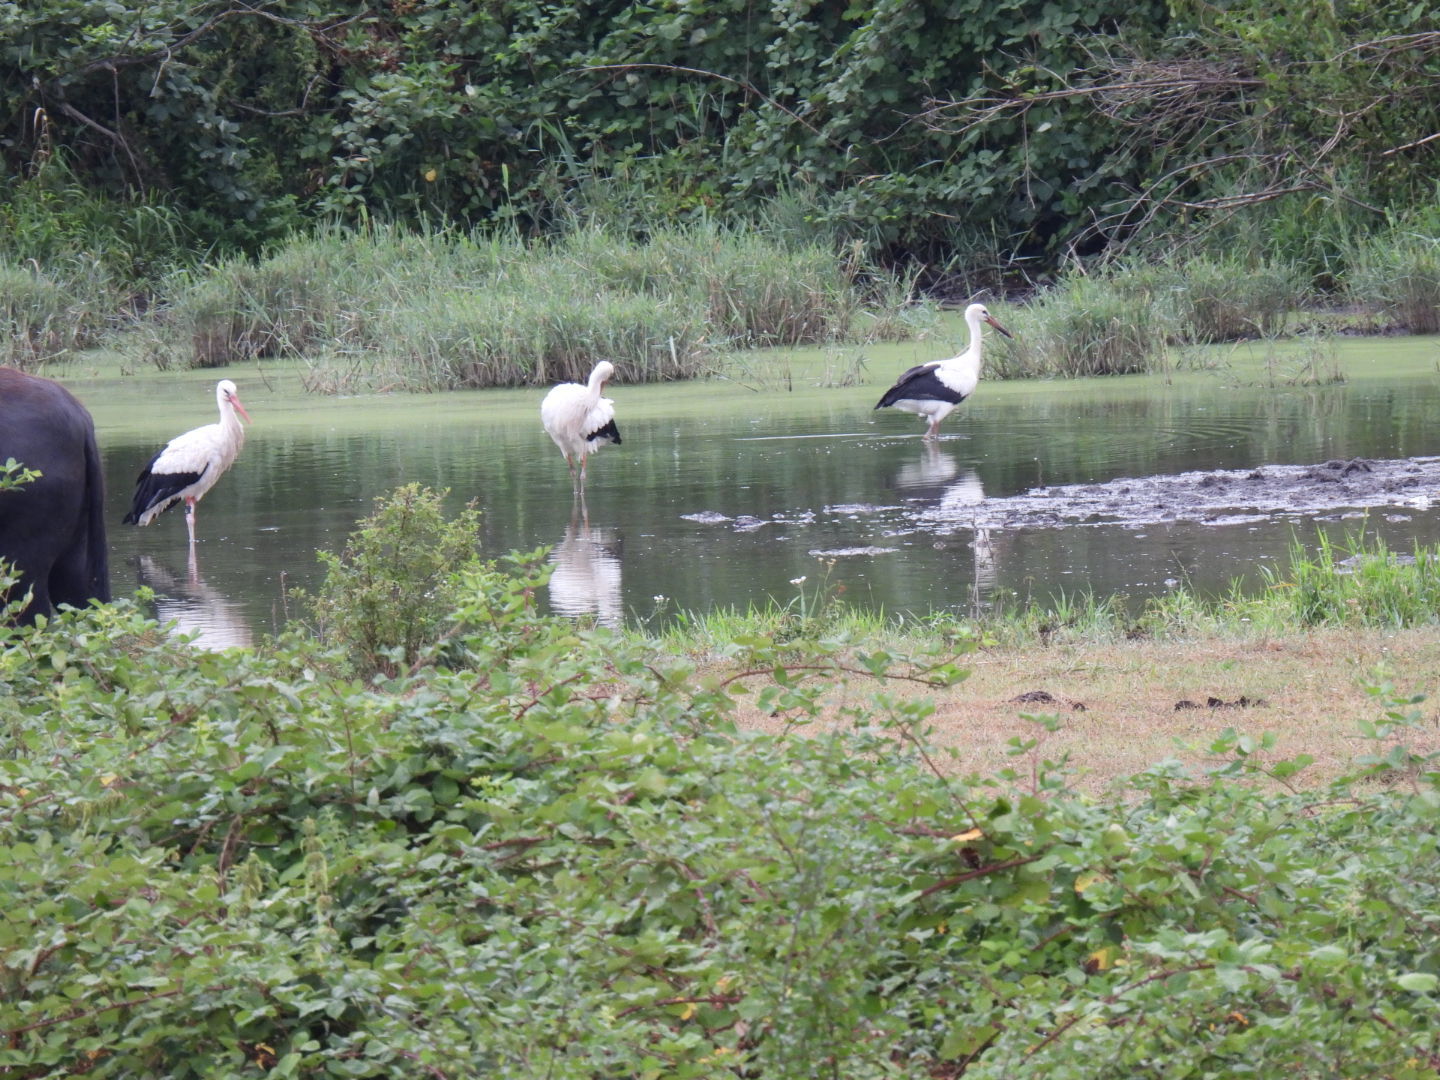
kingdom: Animalia
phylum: Chordata
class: Aves
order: Ciconiiformes
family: Ciconiidae
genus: Ciconia
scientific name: Ciconia ciconia
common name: White stork
